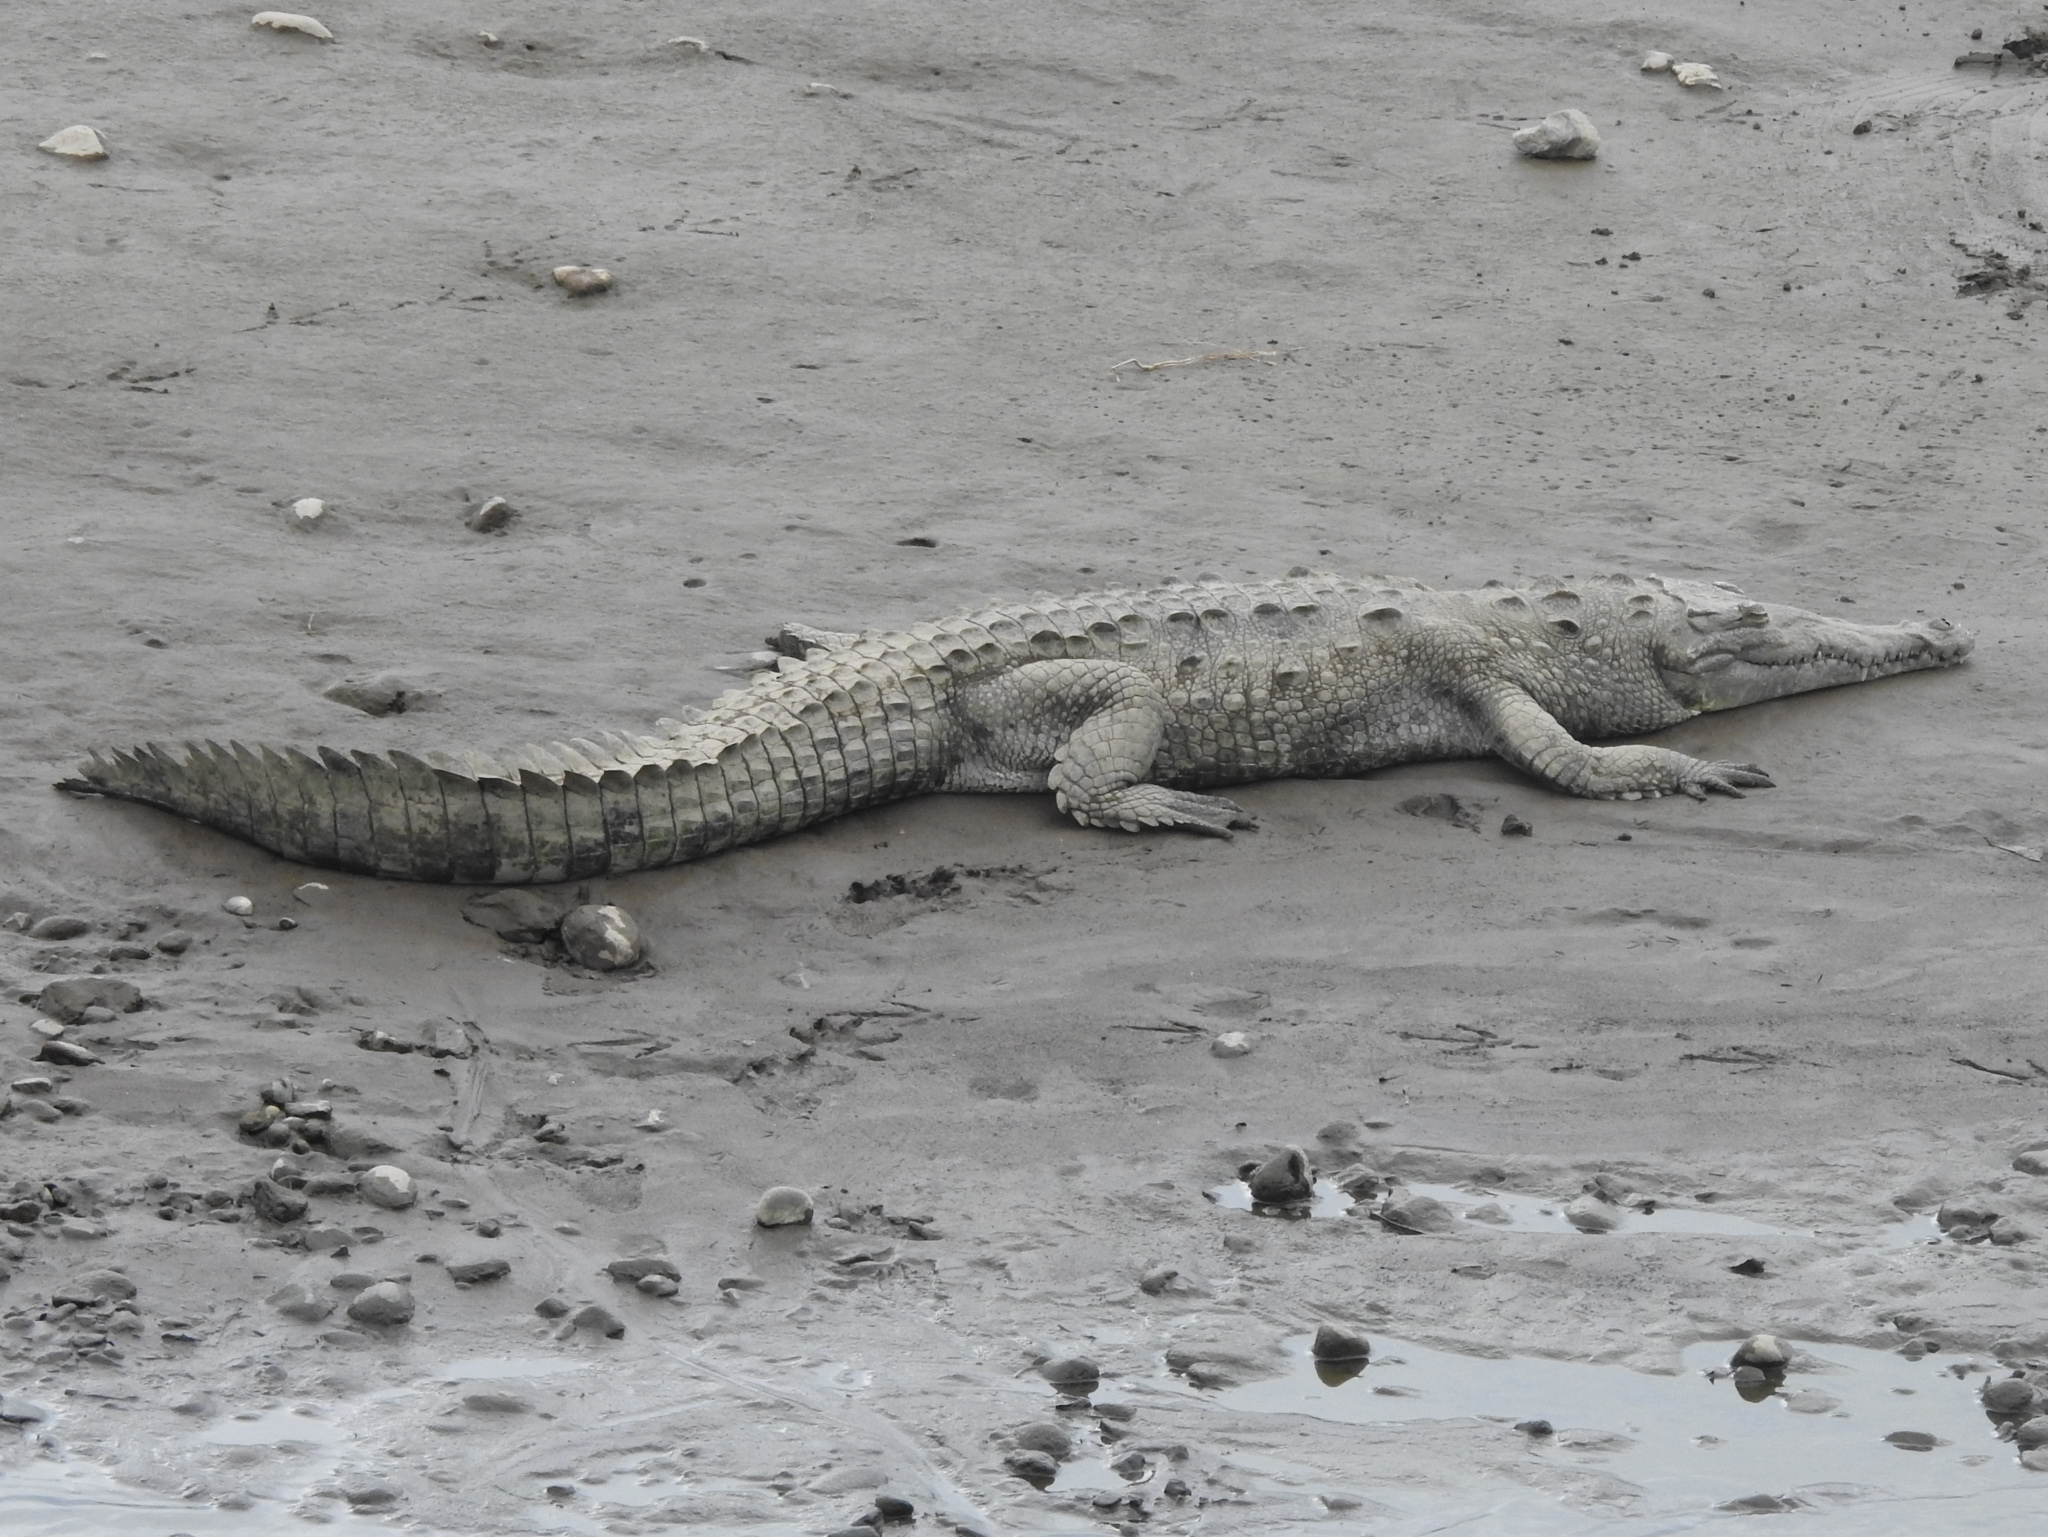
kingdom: Animalia
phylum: Chordata
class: Crocodylia
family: Crocodylidae
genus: Crocodylus
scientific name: Crocodylus acutus
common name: American crocodile
